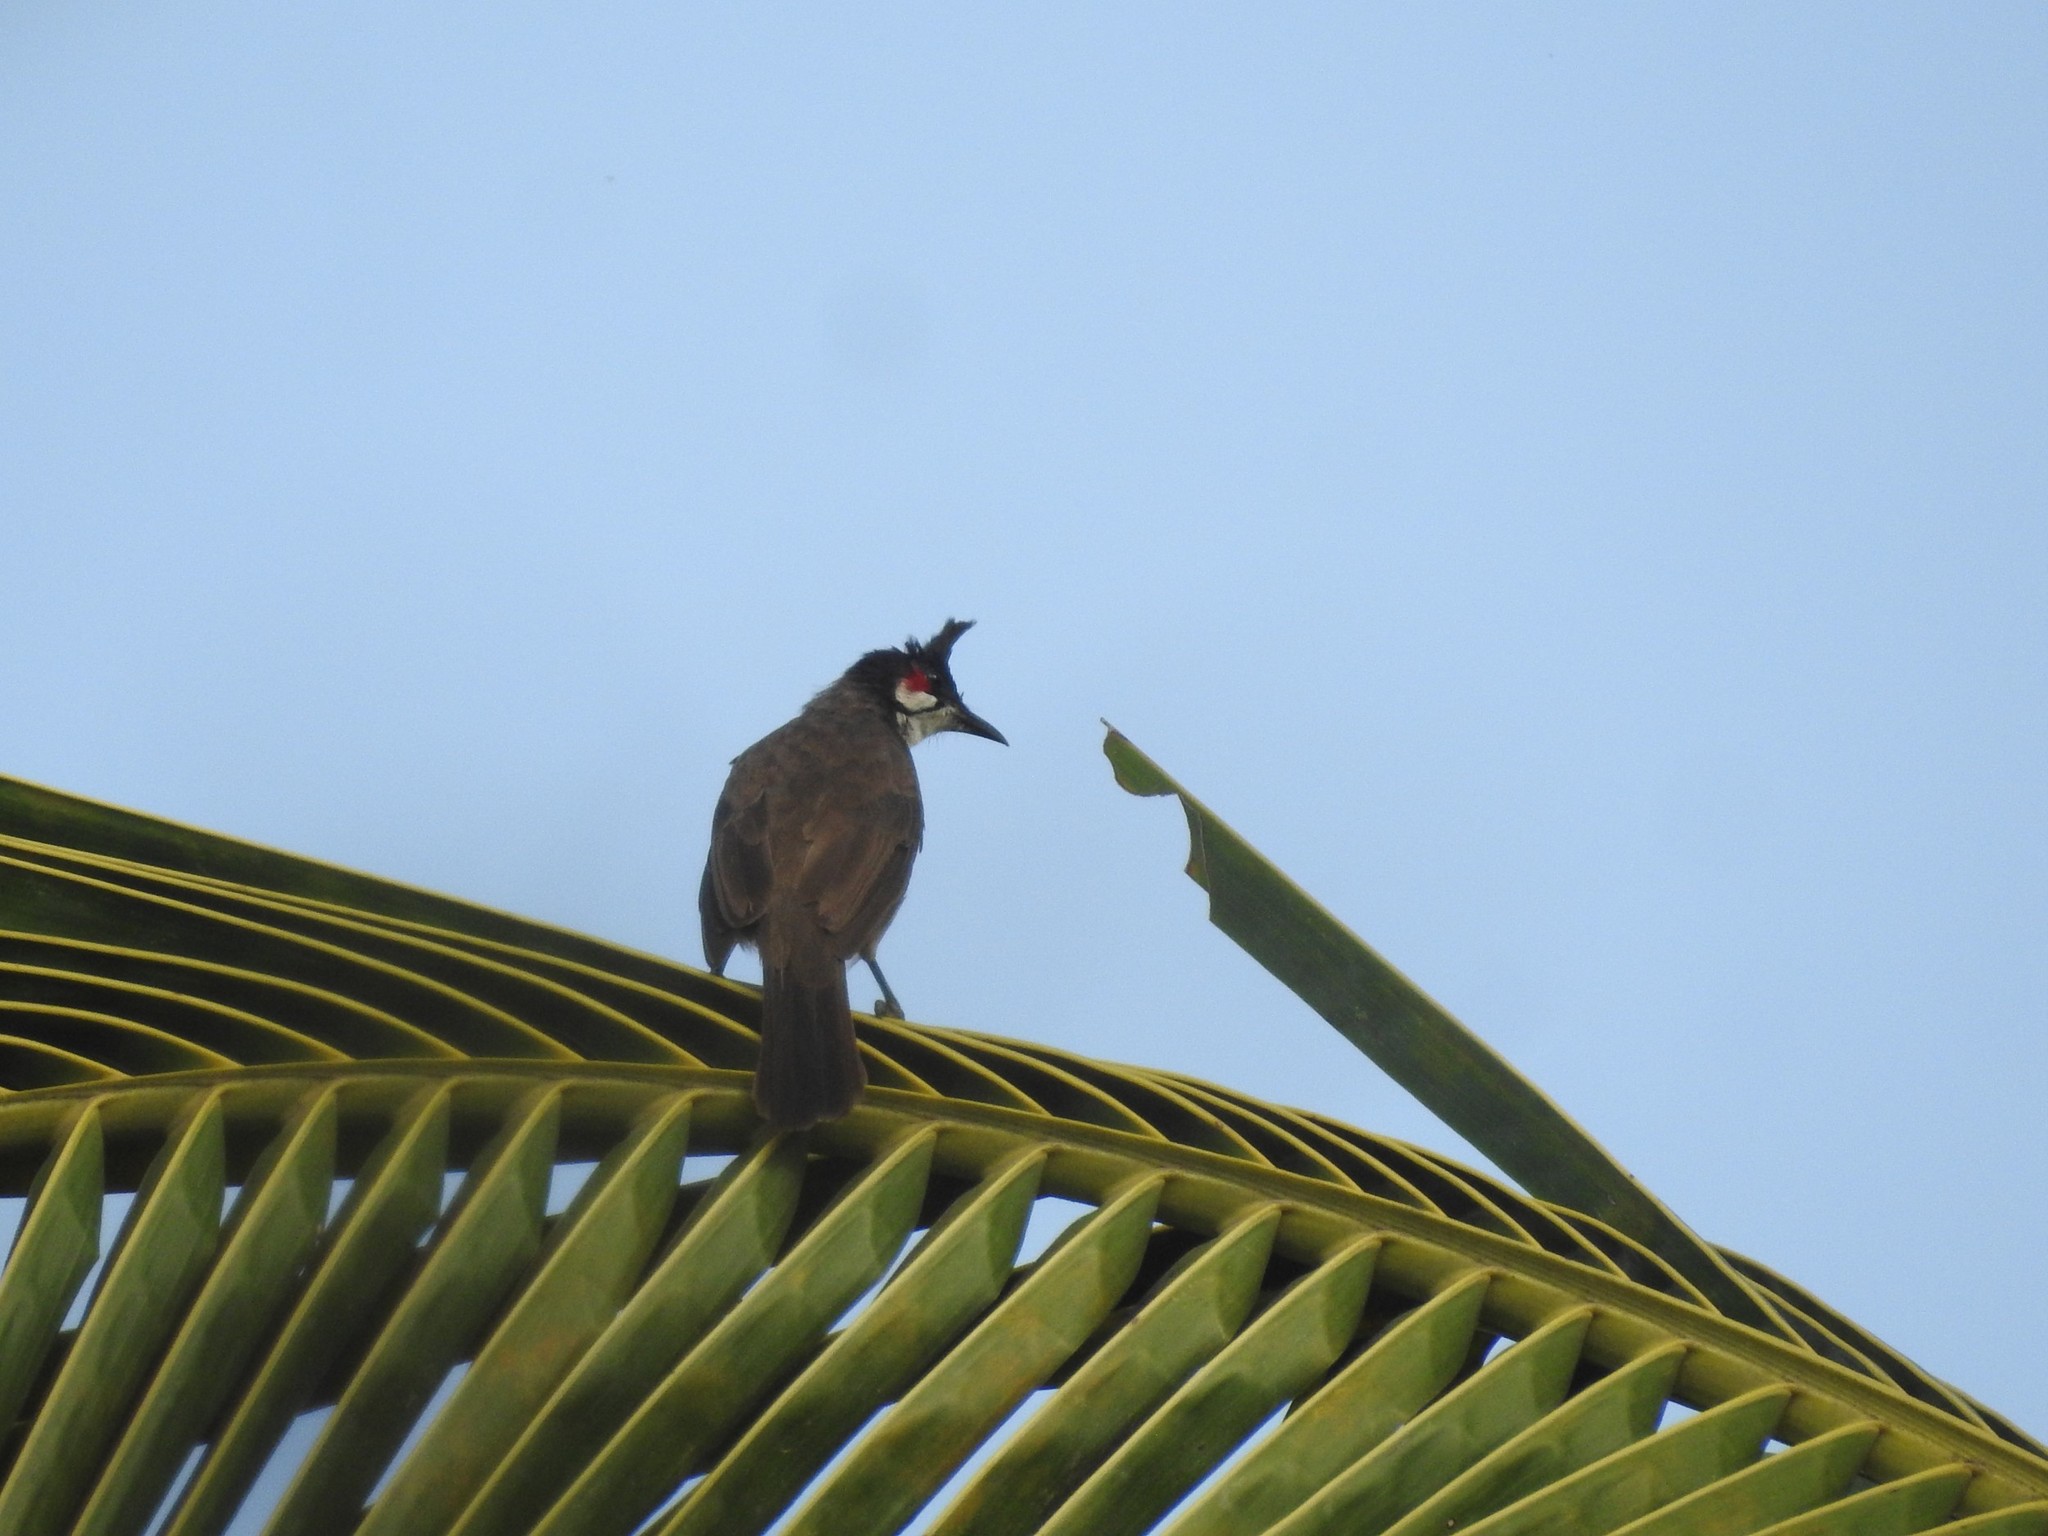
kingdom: Animalia
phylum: Chordata
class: Aves
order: Passeriformes
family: Pycnonotidae
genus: Pycnonotus
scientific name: Pycnonotus jocosus
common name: Red-whiskered bulbul
